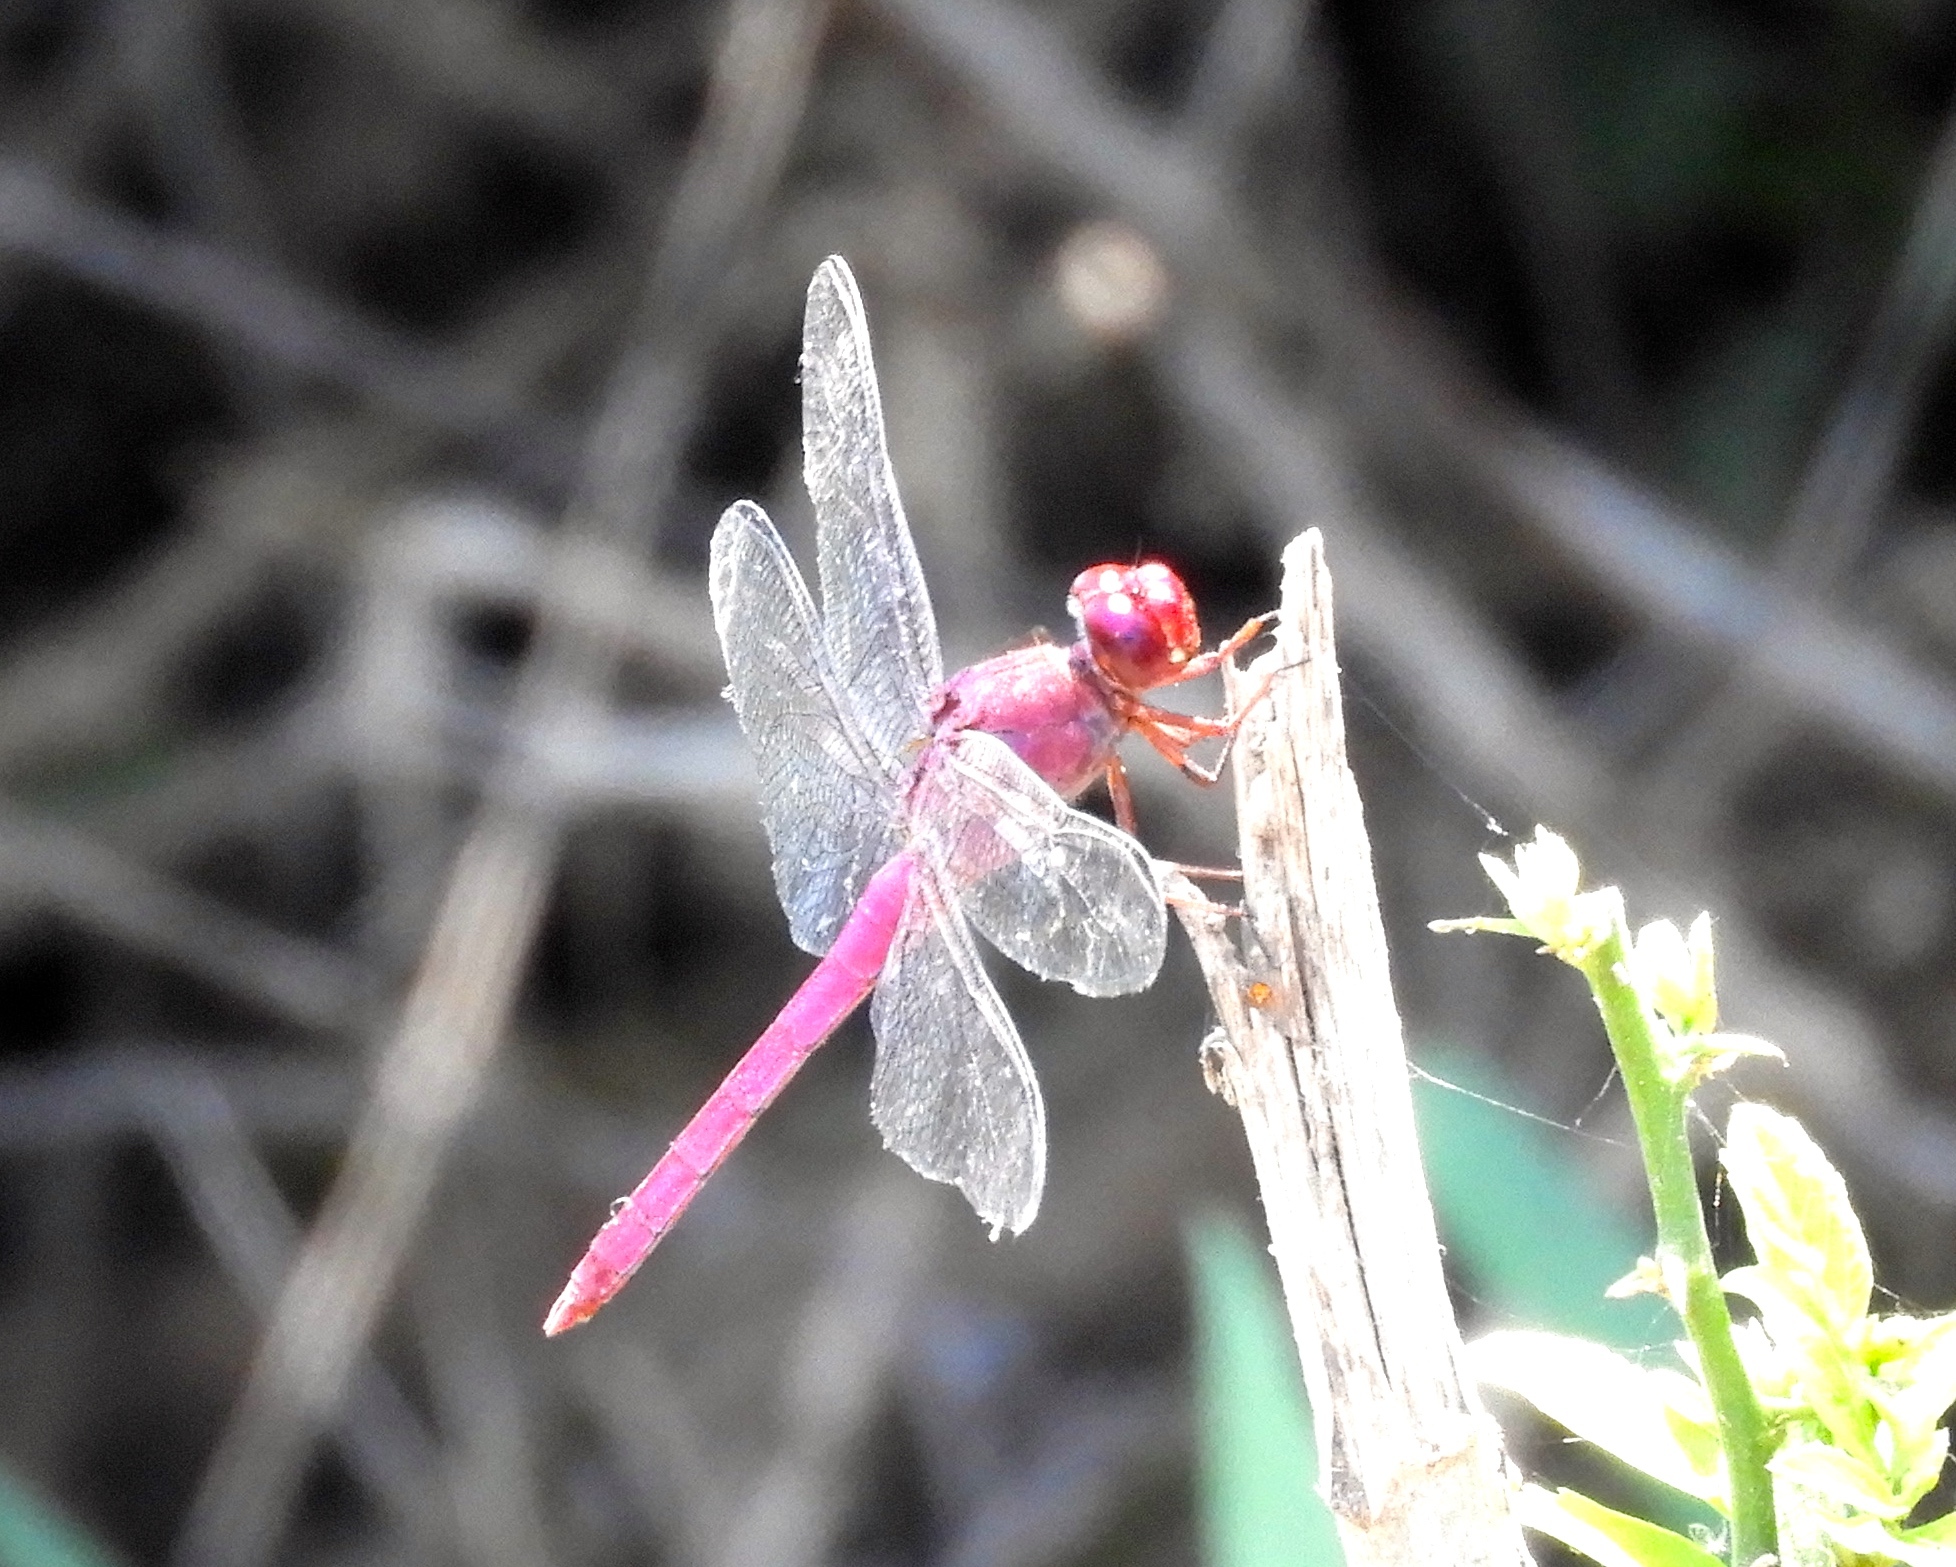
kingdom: Animalia
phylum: Arthropoda
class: Insecta
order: Odonata
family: Libellulidae
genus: Orthemis
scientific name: Orthemis discolor
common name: Carmine skimmer
